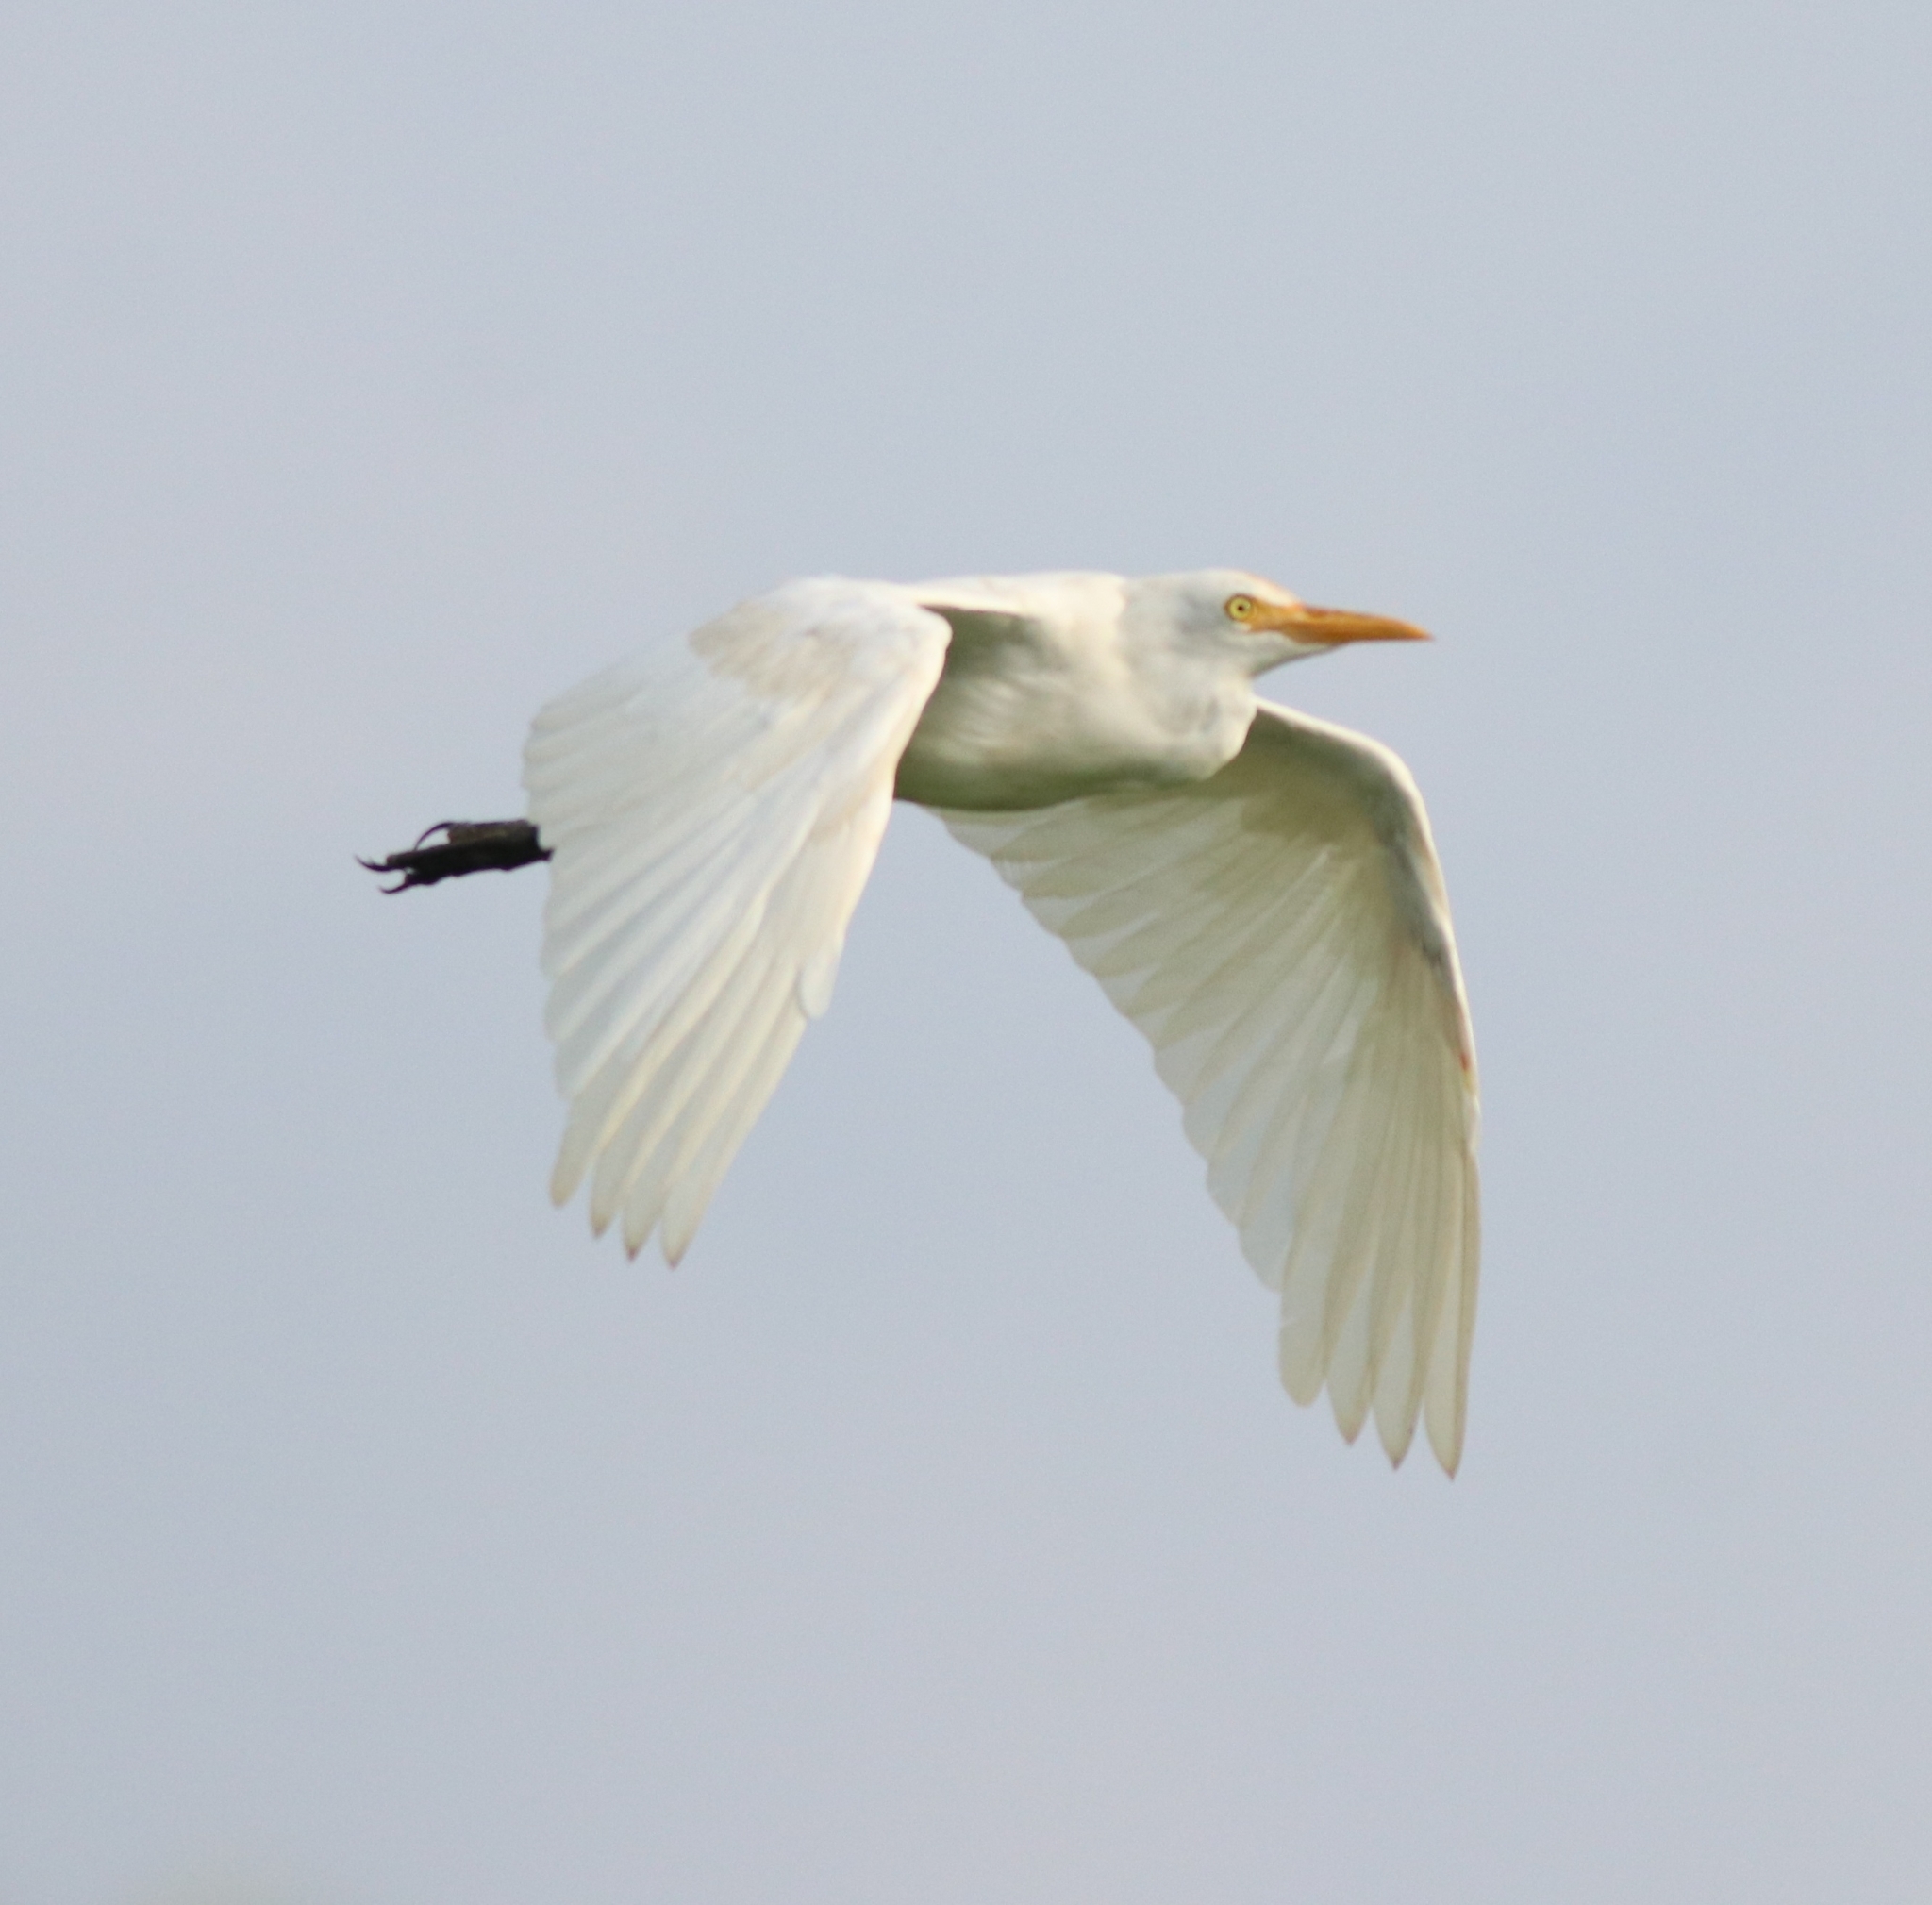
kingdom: Animalia
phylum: Chordata
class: Aves
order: Pelecaniformes
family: Ardeidae
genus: Bubulcus
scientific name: Bubulcus coromandus
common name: Eastern cattle egret
